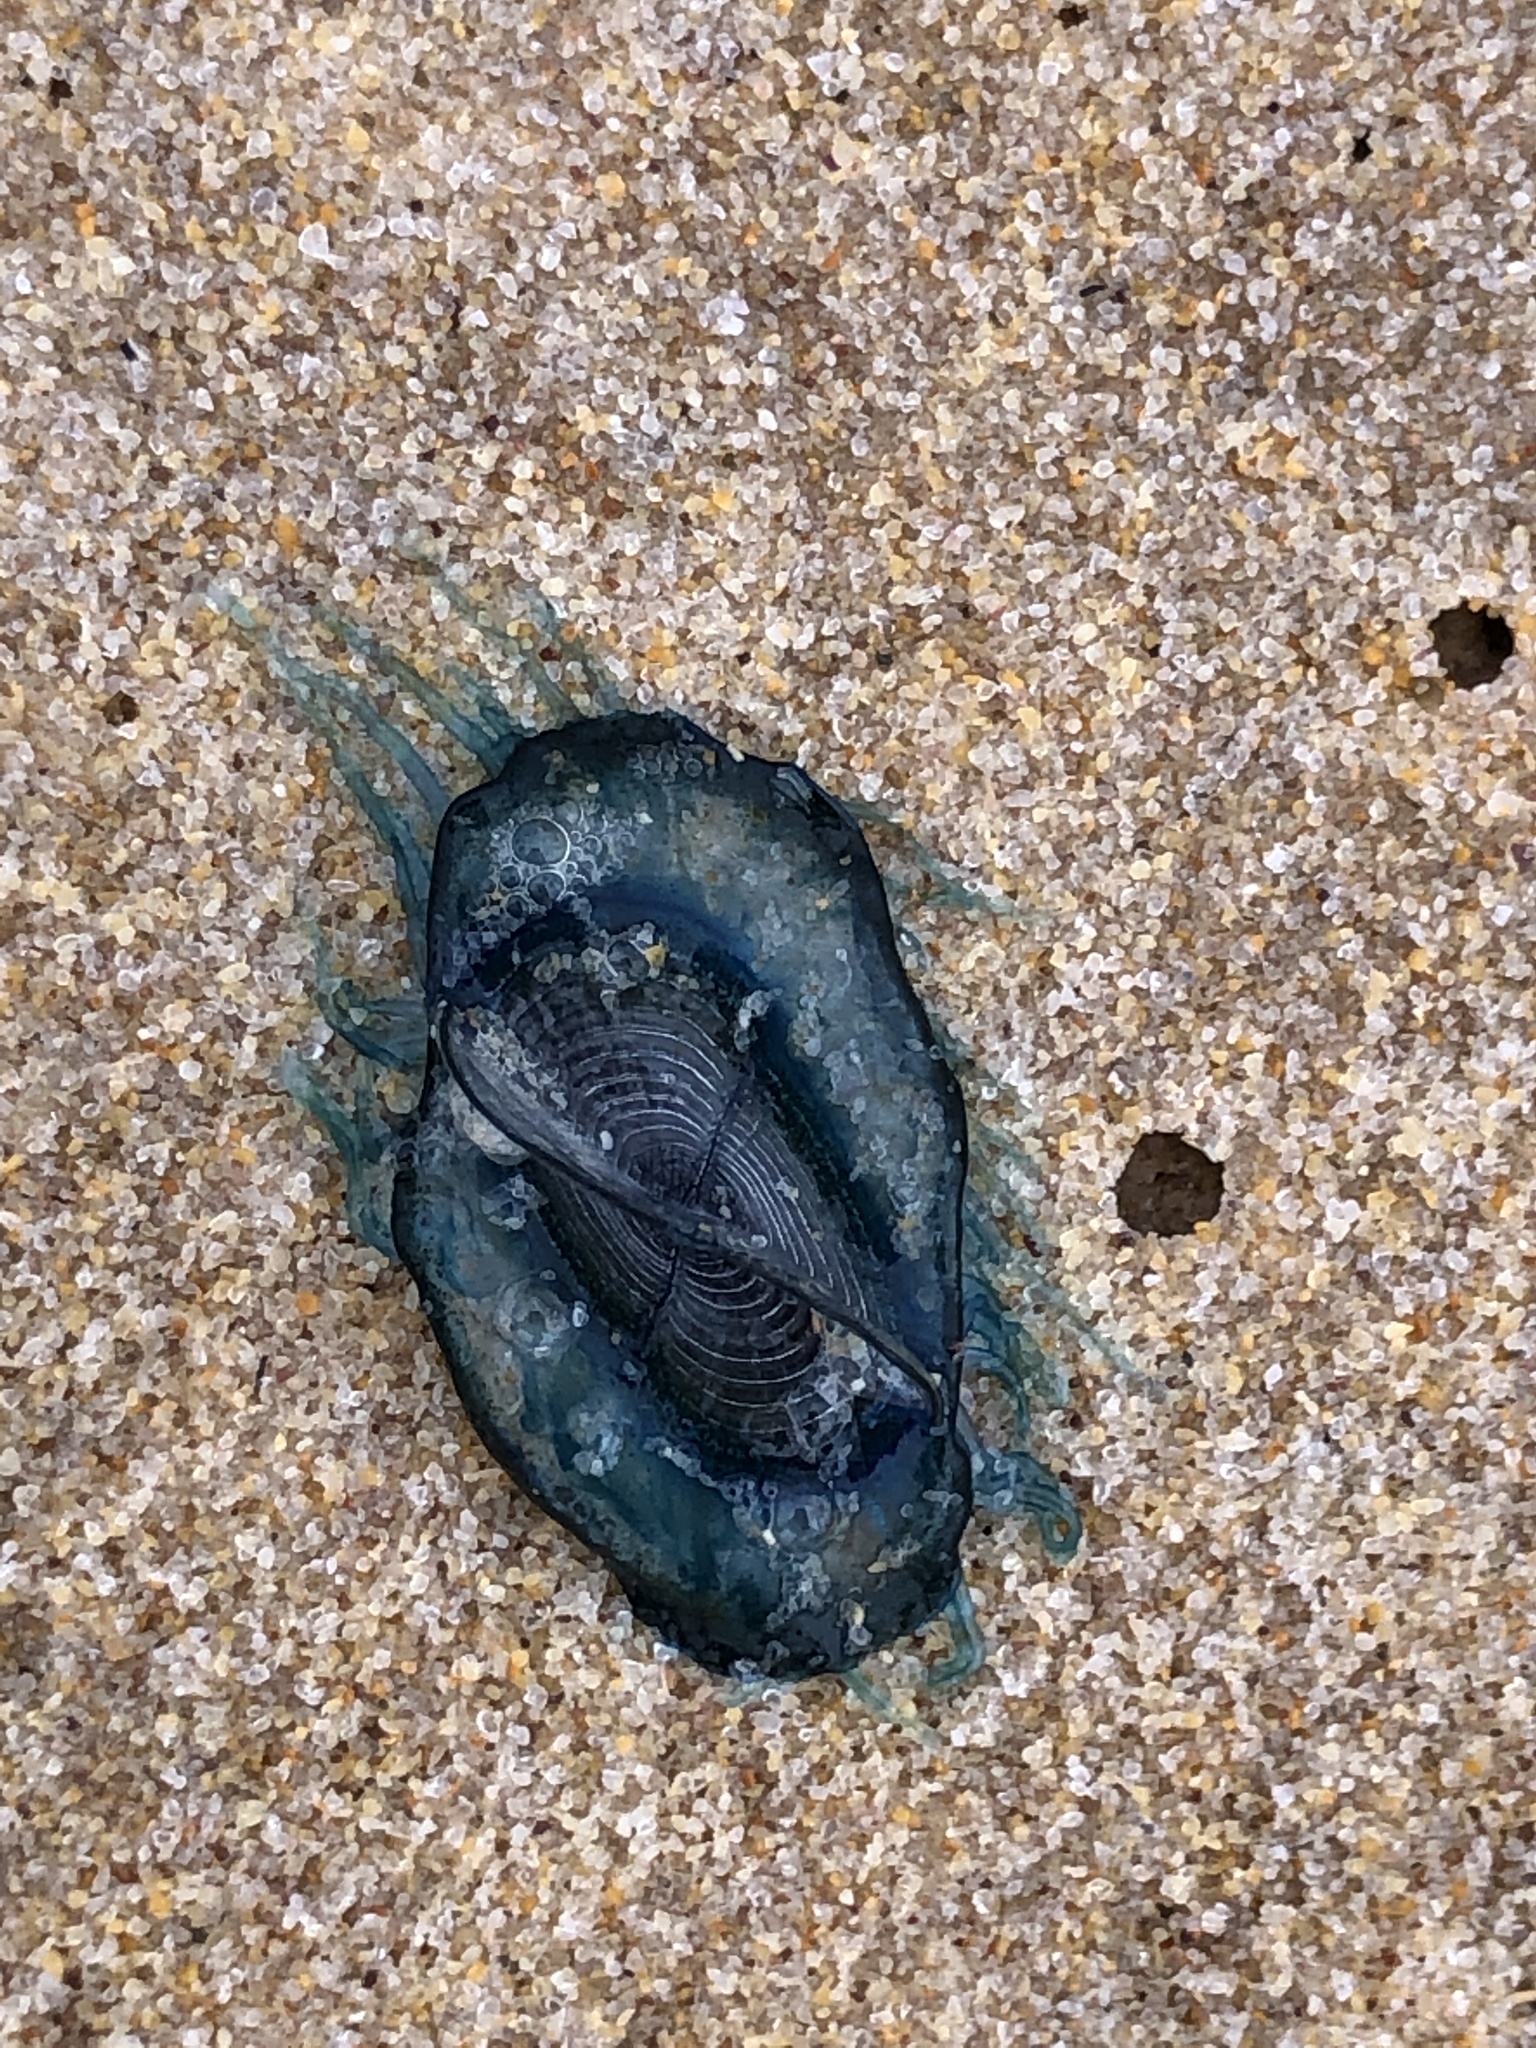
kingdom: Animalia
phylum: Cnidaria
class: Hydrozoa
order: Anthoathecata
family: Porpitidae
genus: Velella
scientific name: Velella velella
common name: By-the-wind-sailor
